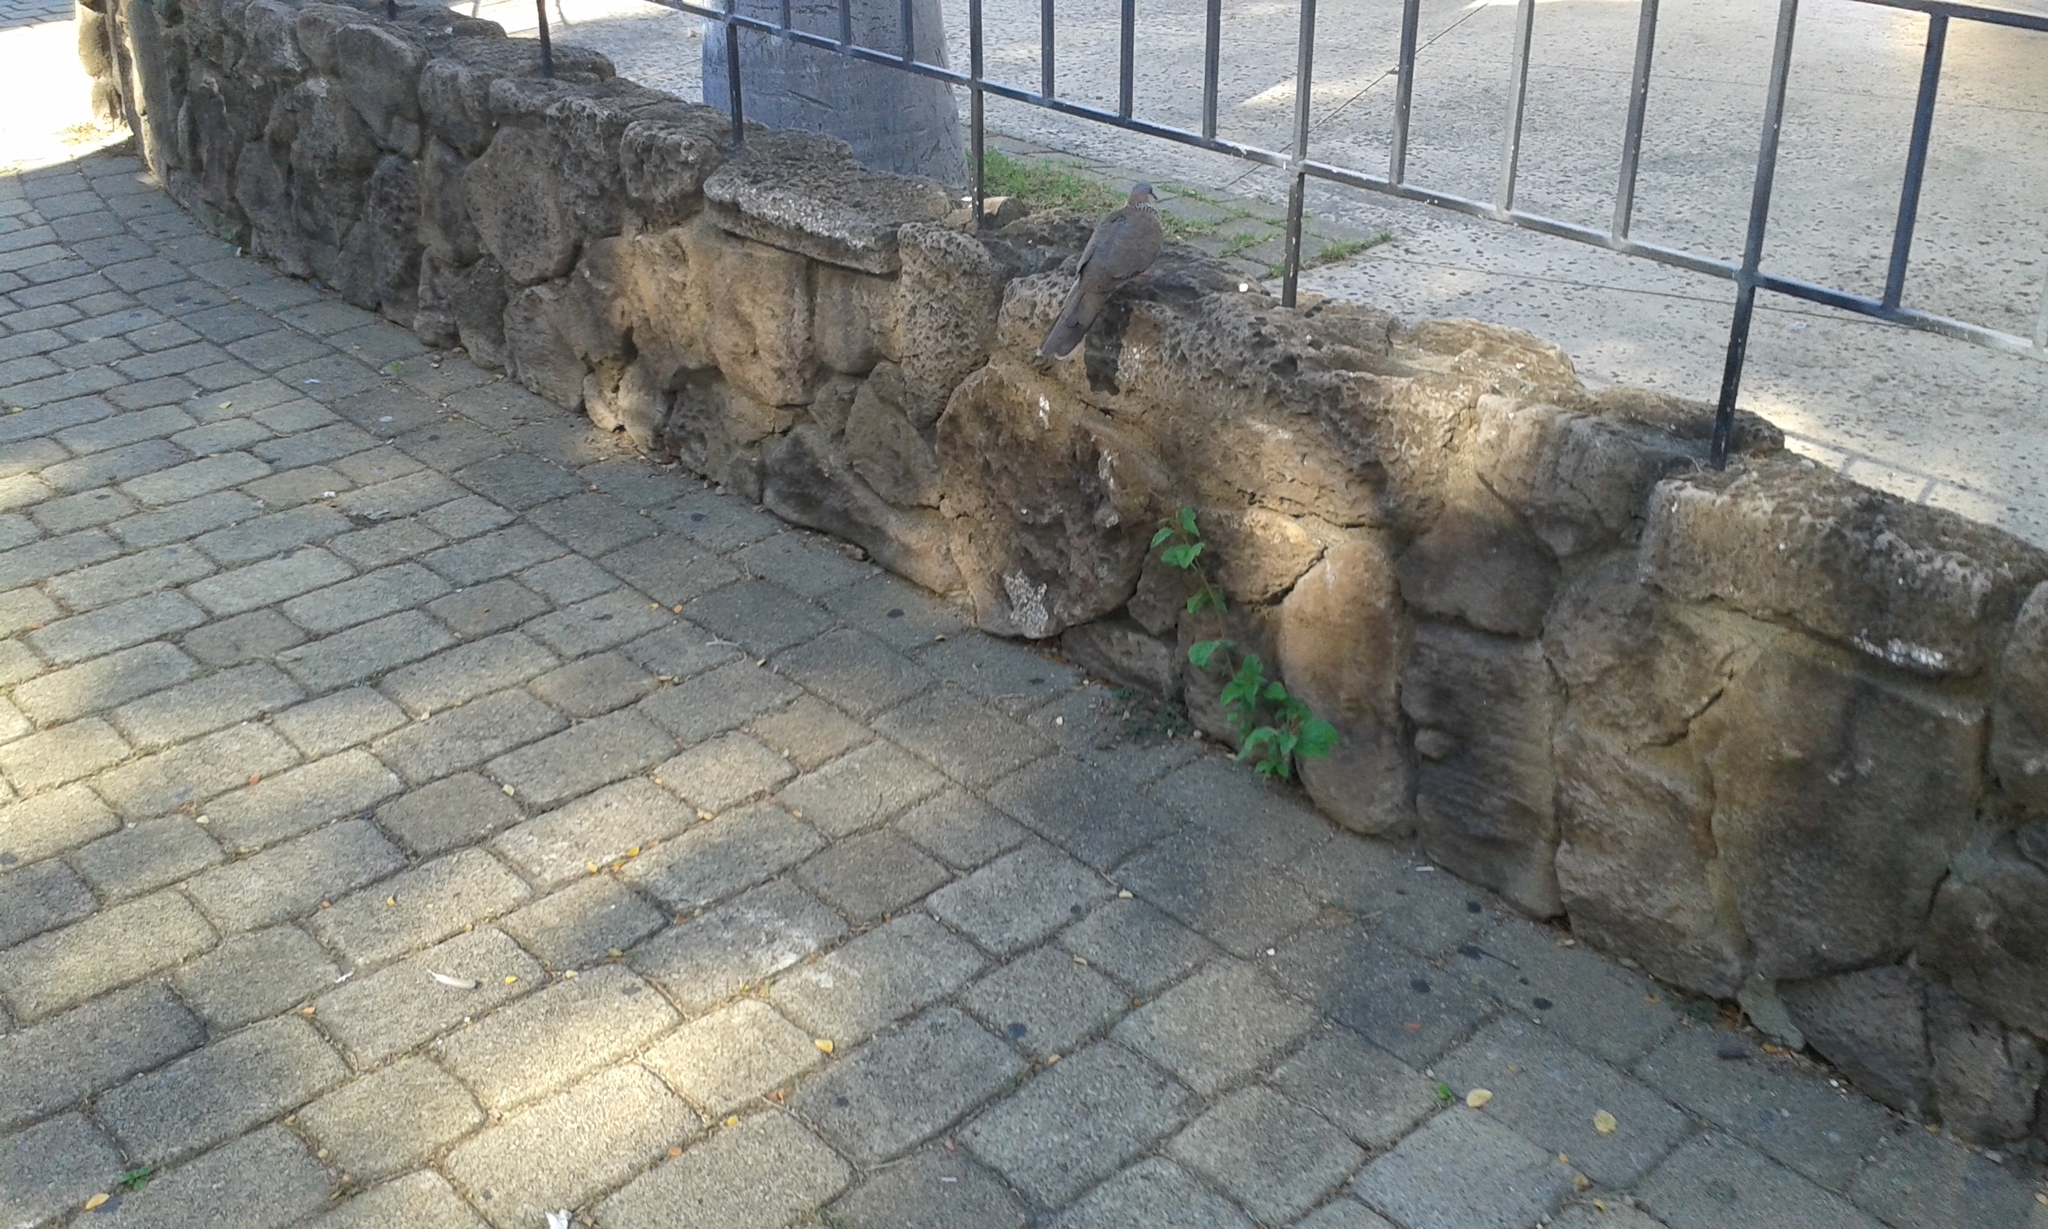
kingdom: Animalia
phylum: Chordata
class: Aves
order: Columbiformes
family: Columbidae
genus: Spilopelia
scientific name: Spilopelia chinensis
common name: Spotted dove
